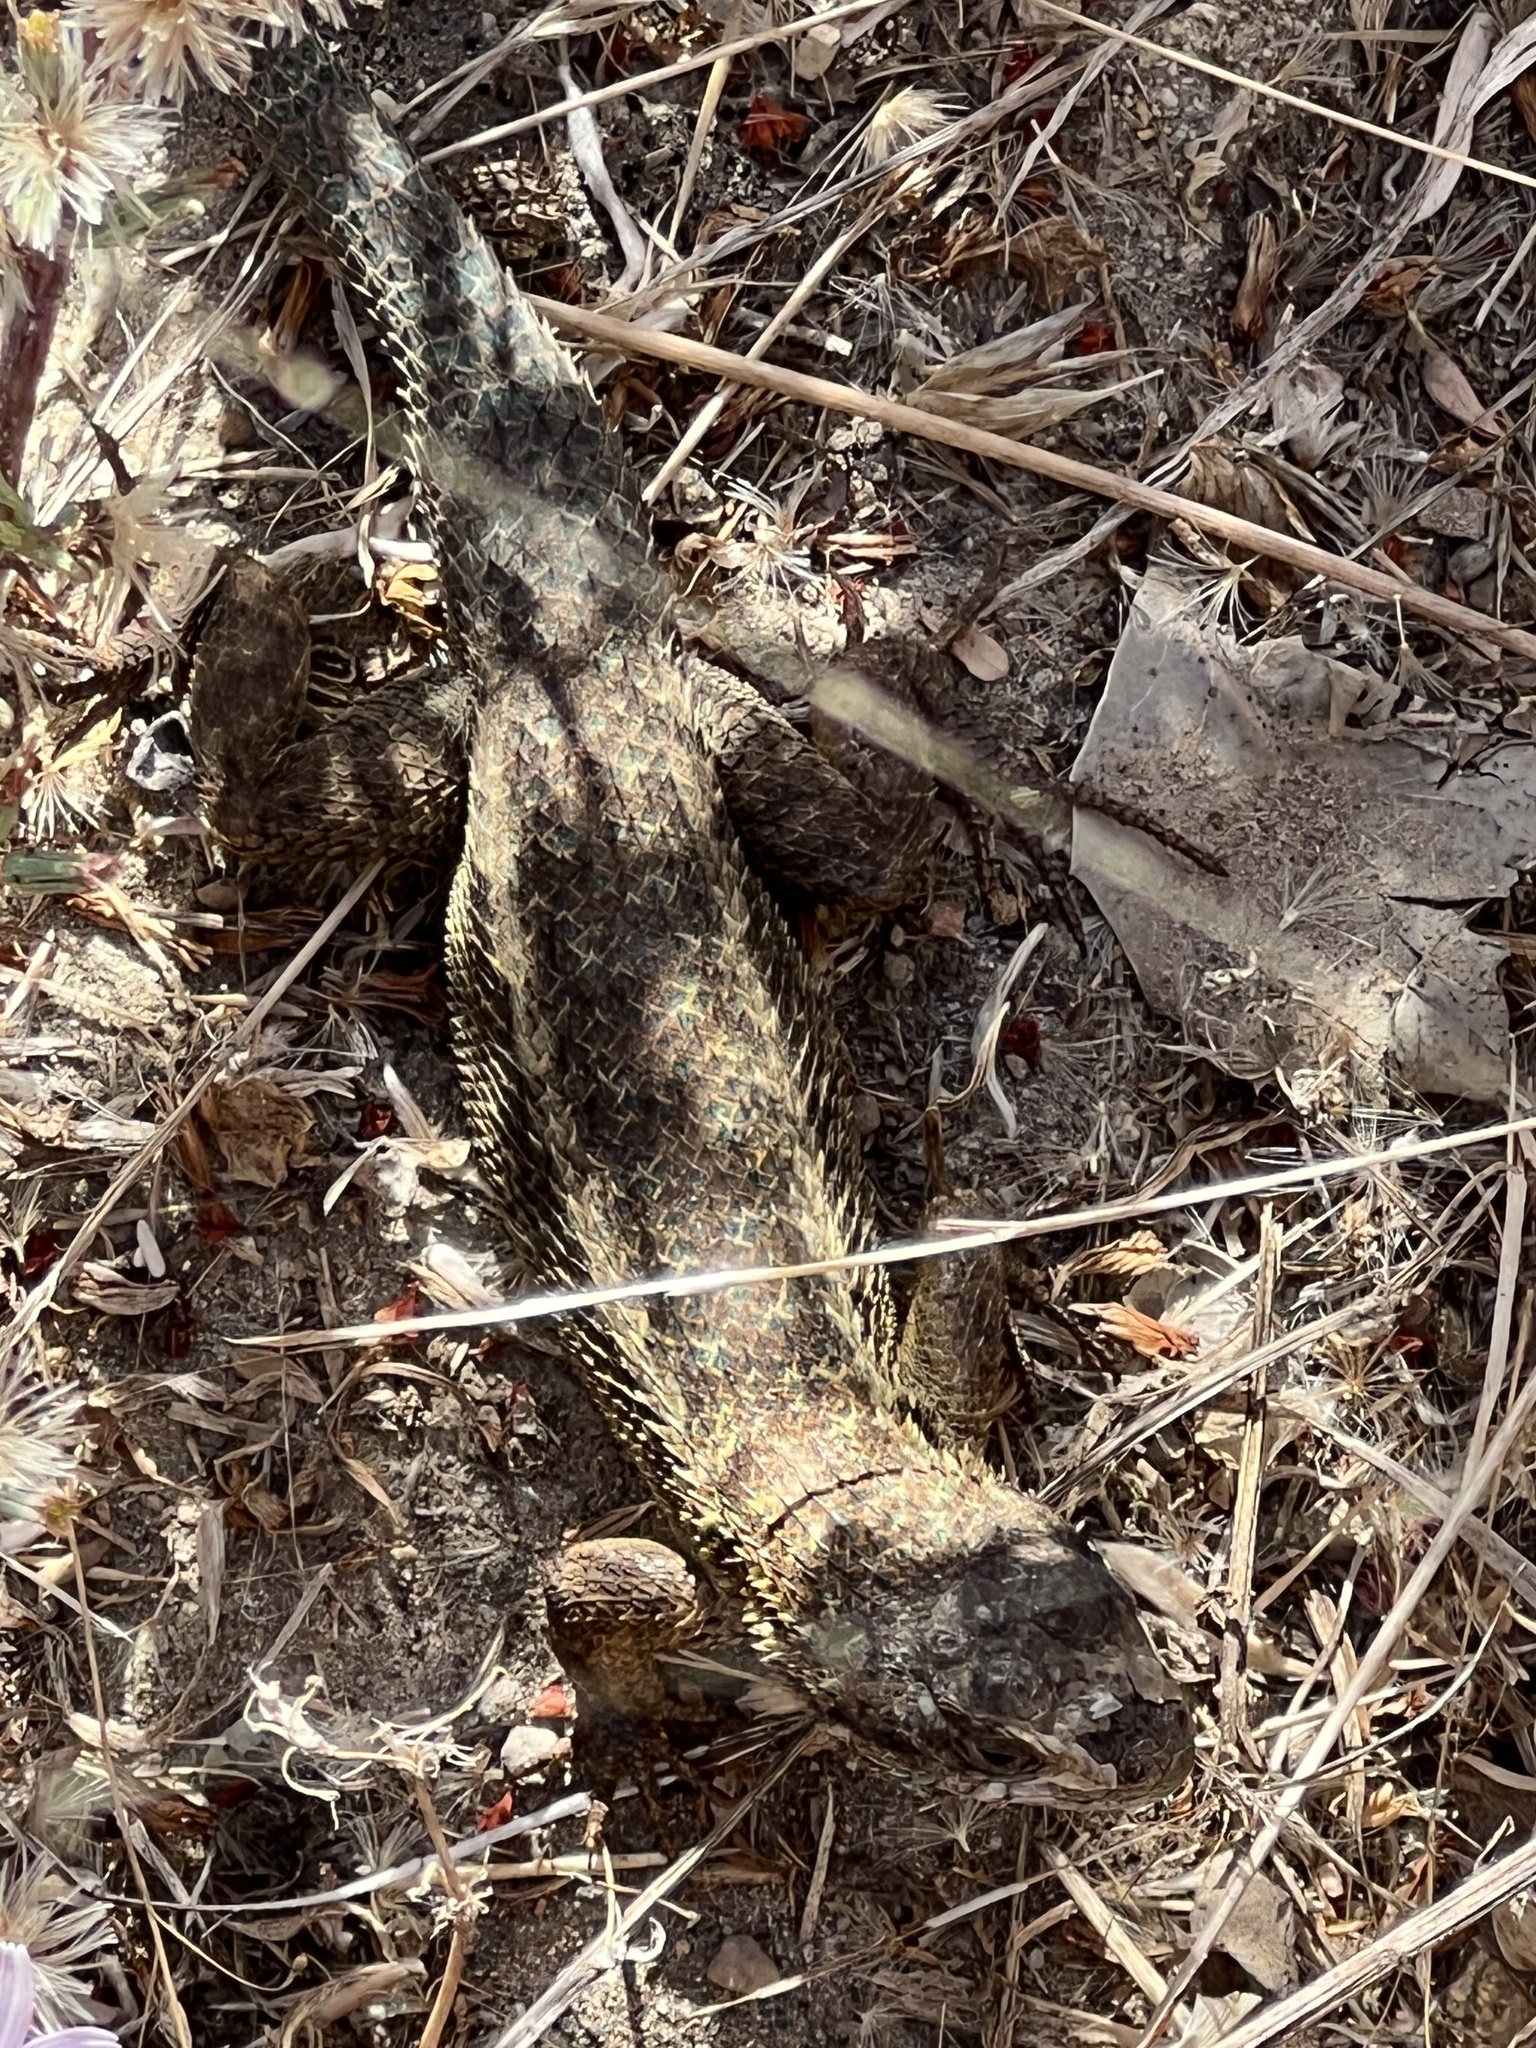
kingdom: Animalia
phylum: Chordata
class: Squamata
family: Phrynosomatidae
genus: Sceloporus
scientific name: Sceloporus occidentalis
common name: Western fence lizard
